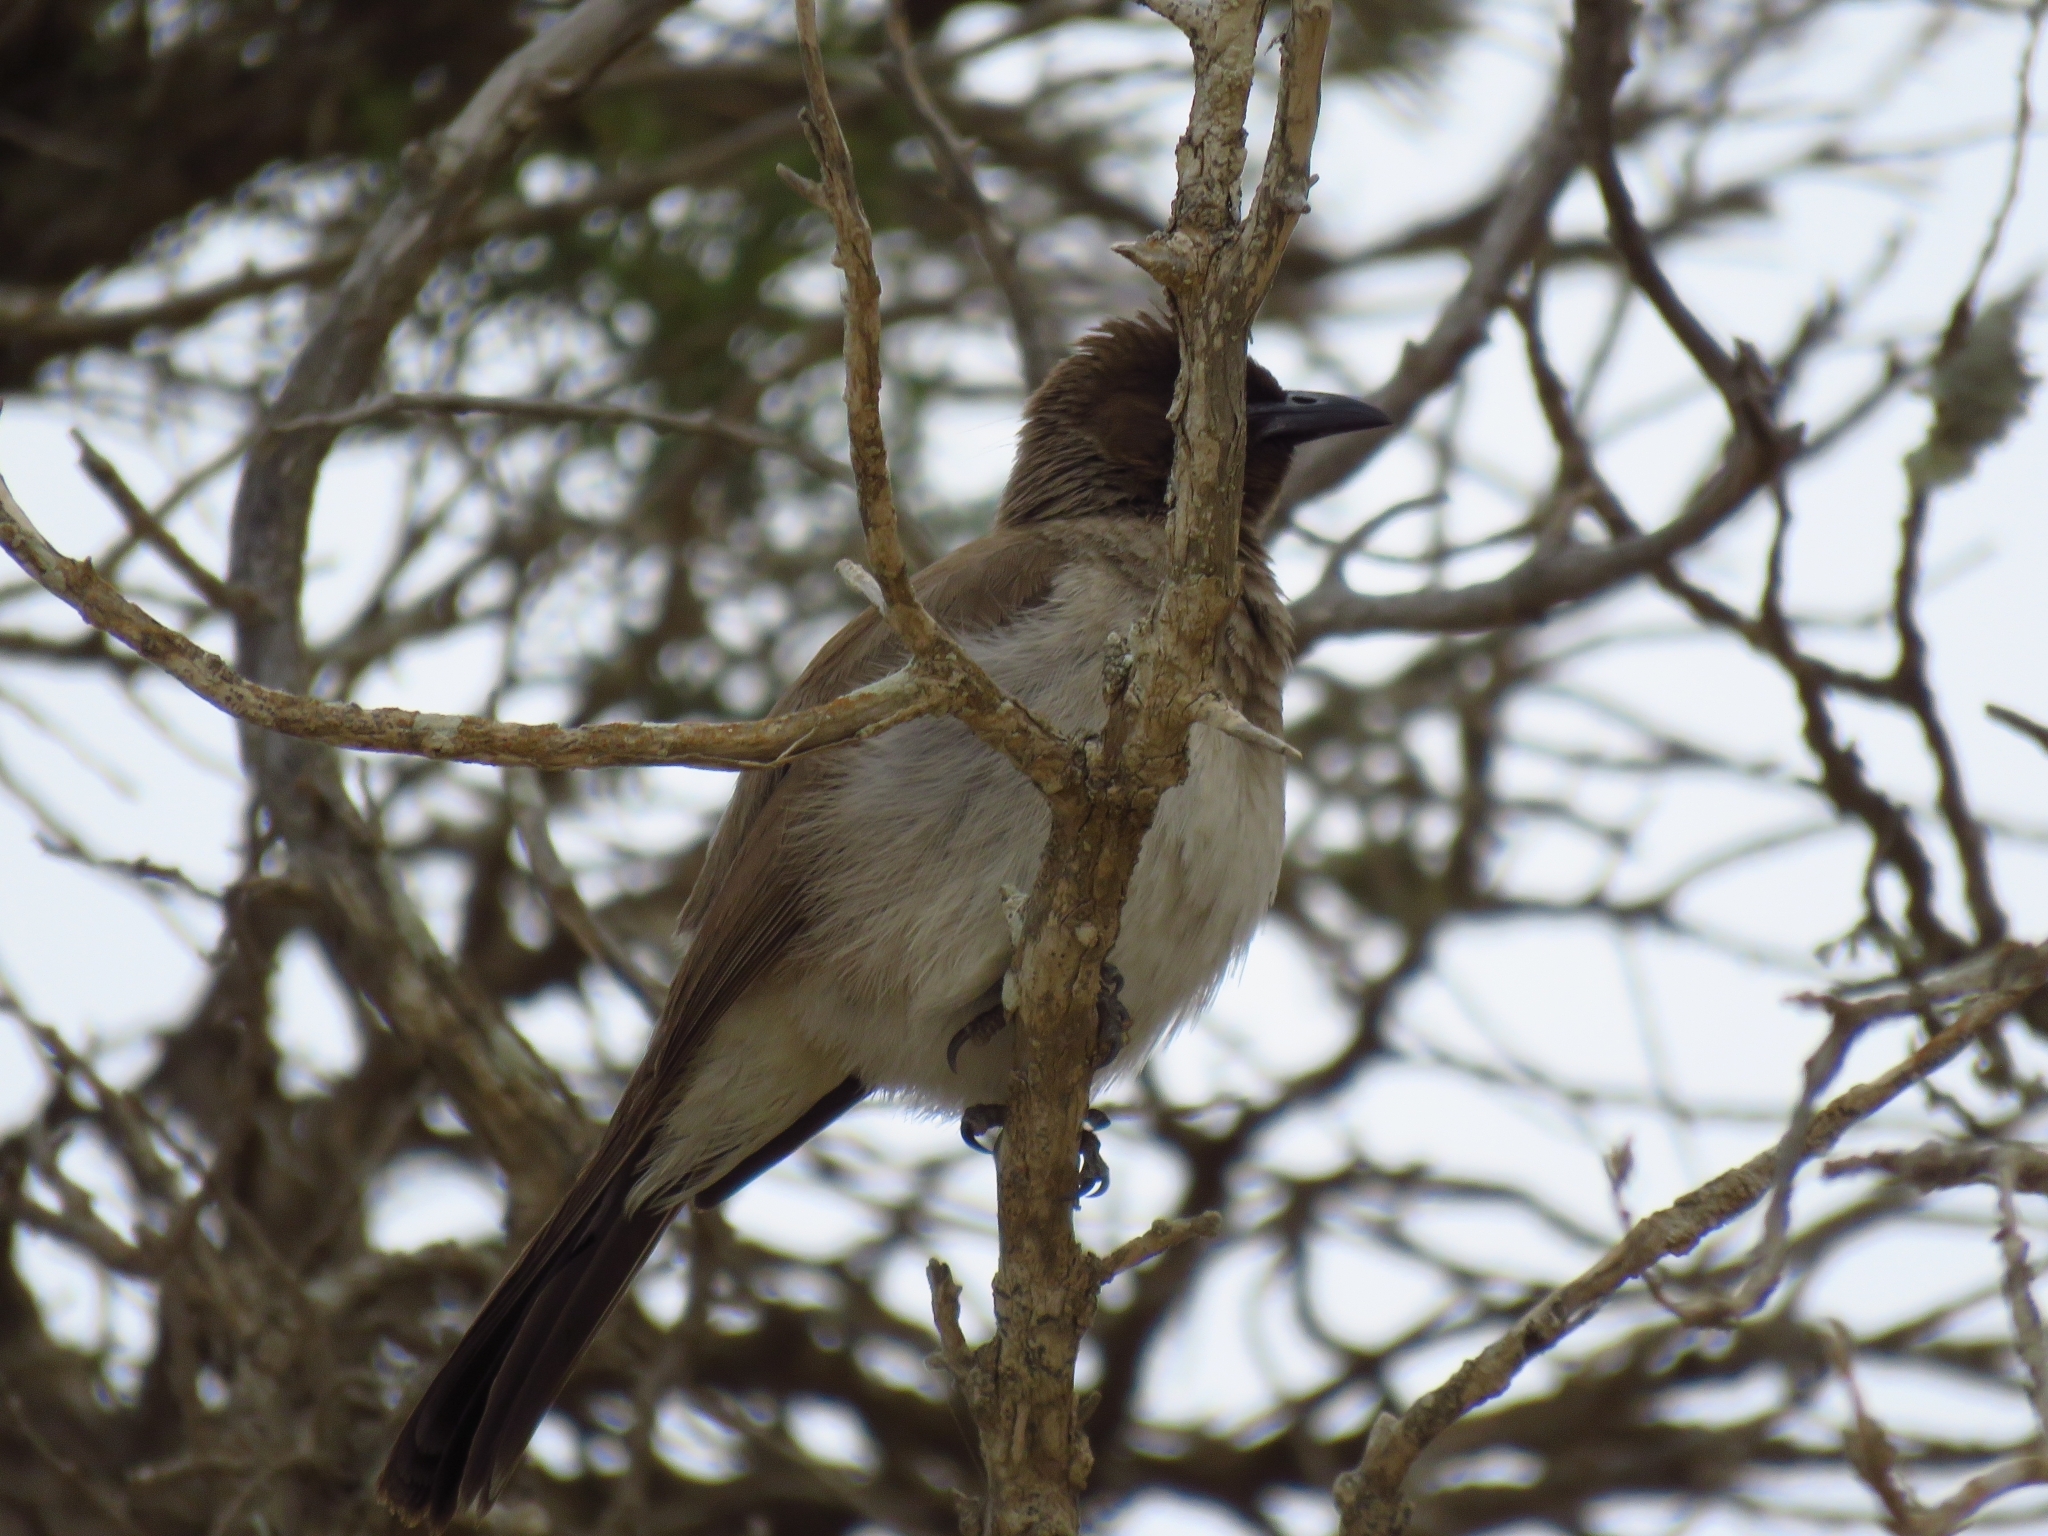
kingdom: Animalia
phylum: Chordata
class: Aves
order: Passeriformes
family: Pycnonotidae
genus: Pycnonotus
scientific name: Pycnonotus barbatus
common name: Common bulbul
